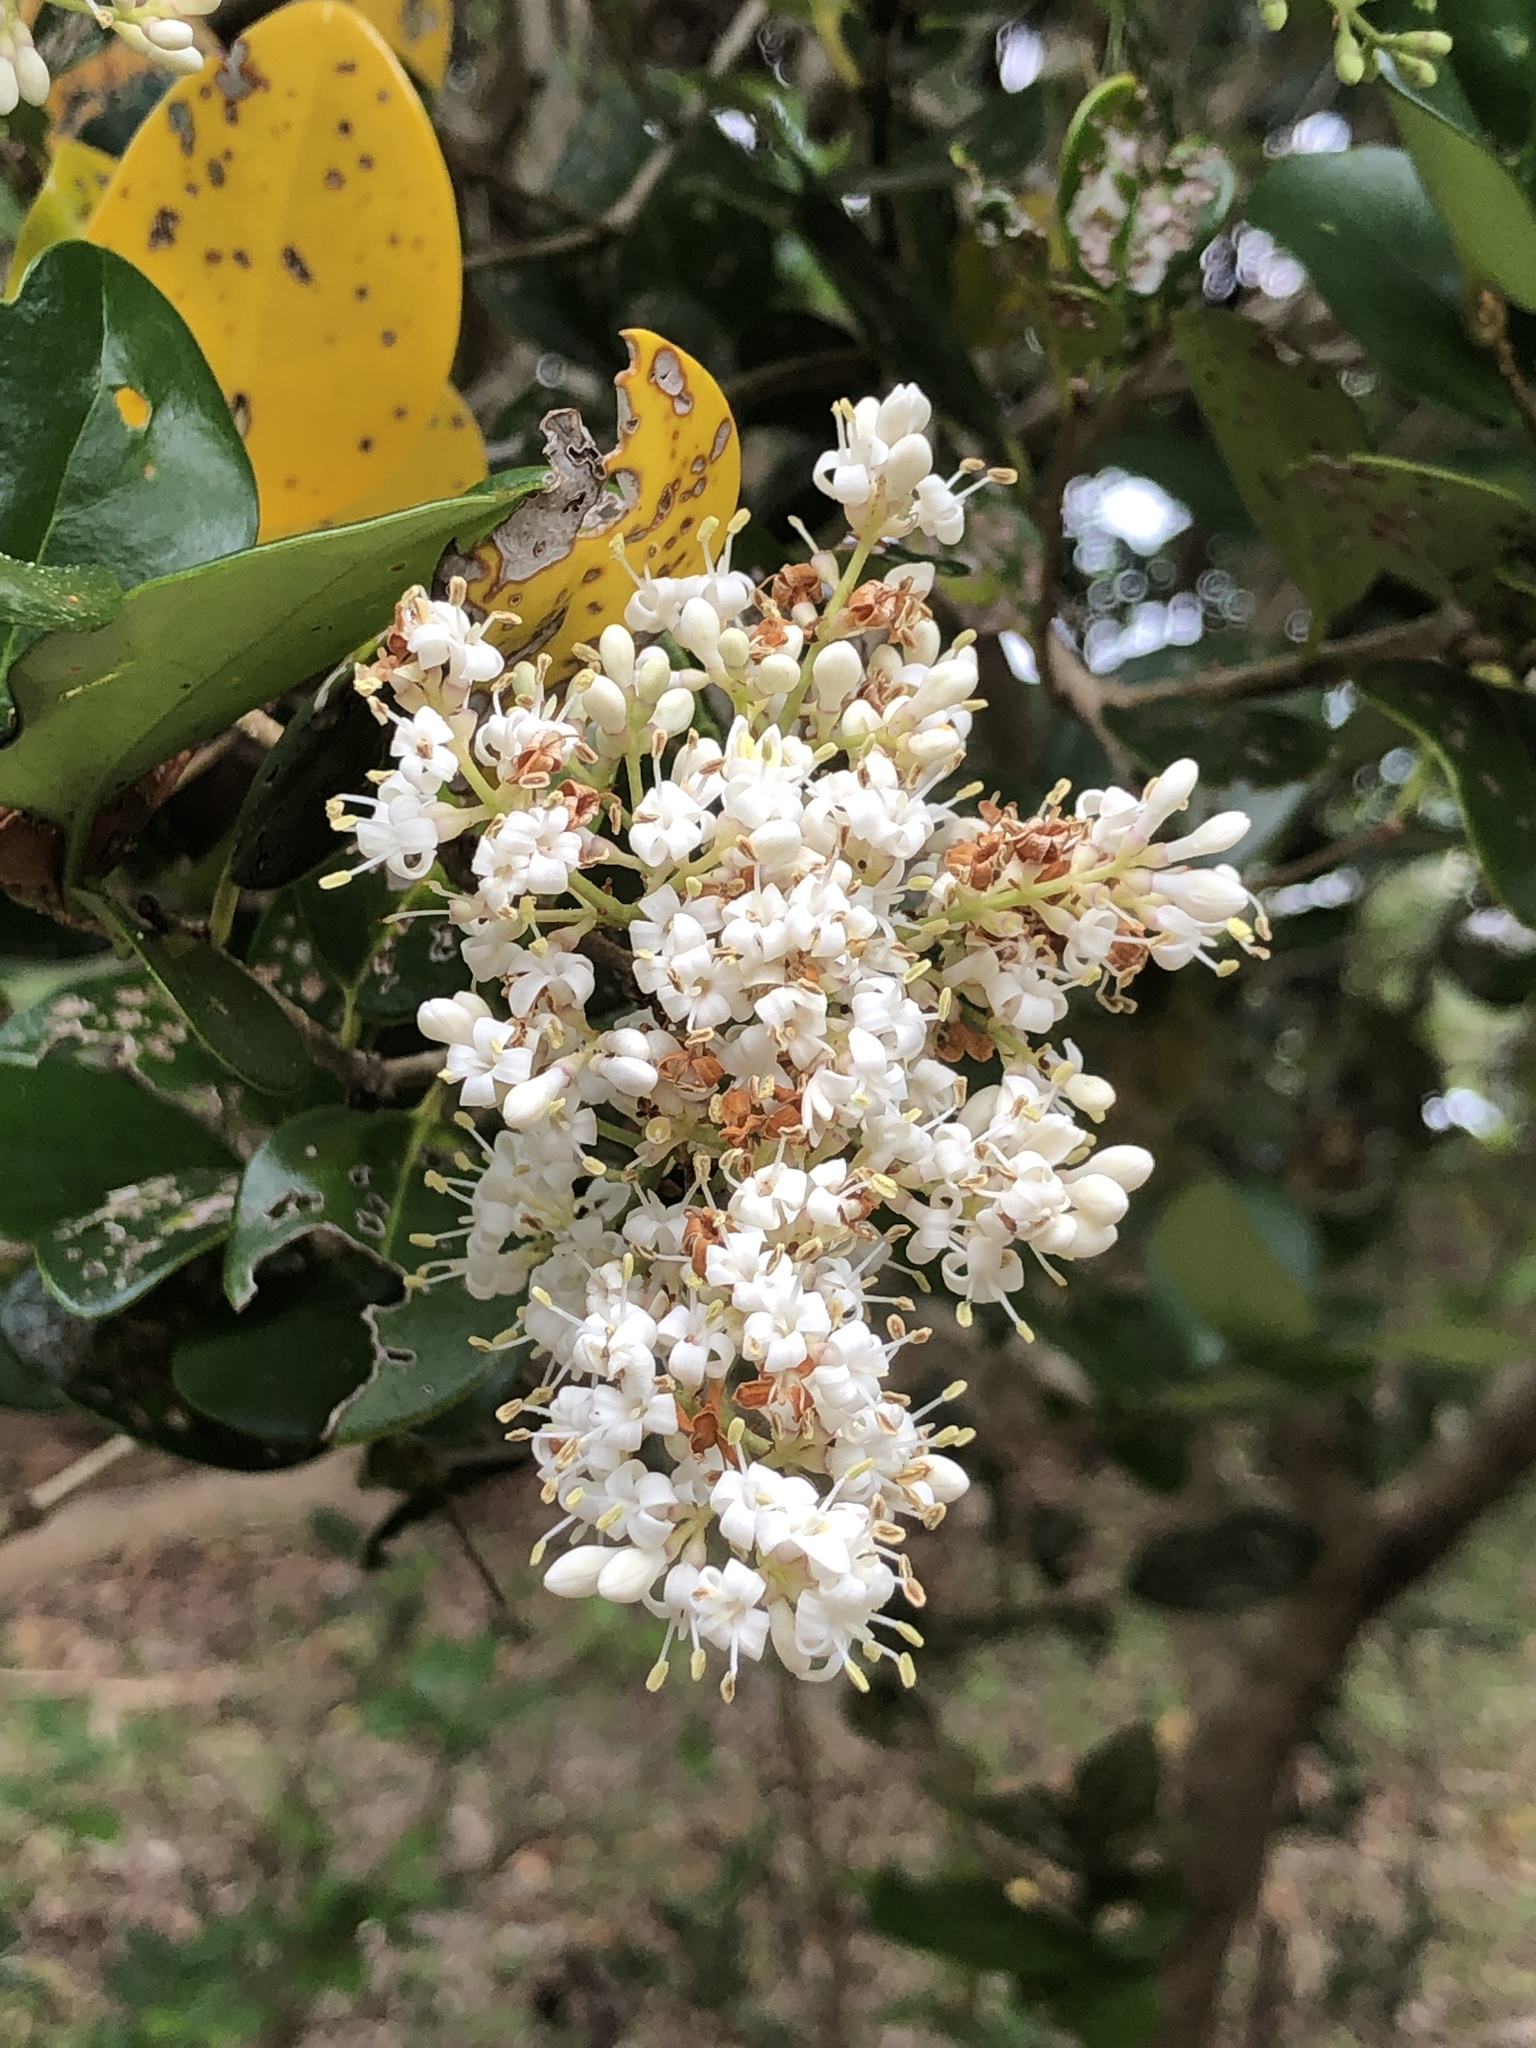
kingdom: Plantae
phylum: Tracheophyta
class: Magnoliopsida
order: Lamiales
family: Oleaceae
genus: Ligustrum
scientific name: Ligustrum japonicum
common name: Japanese privet
